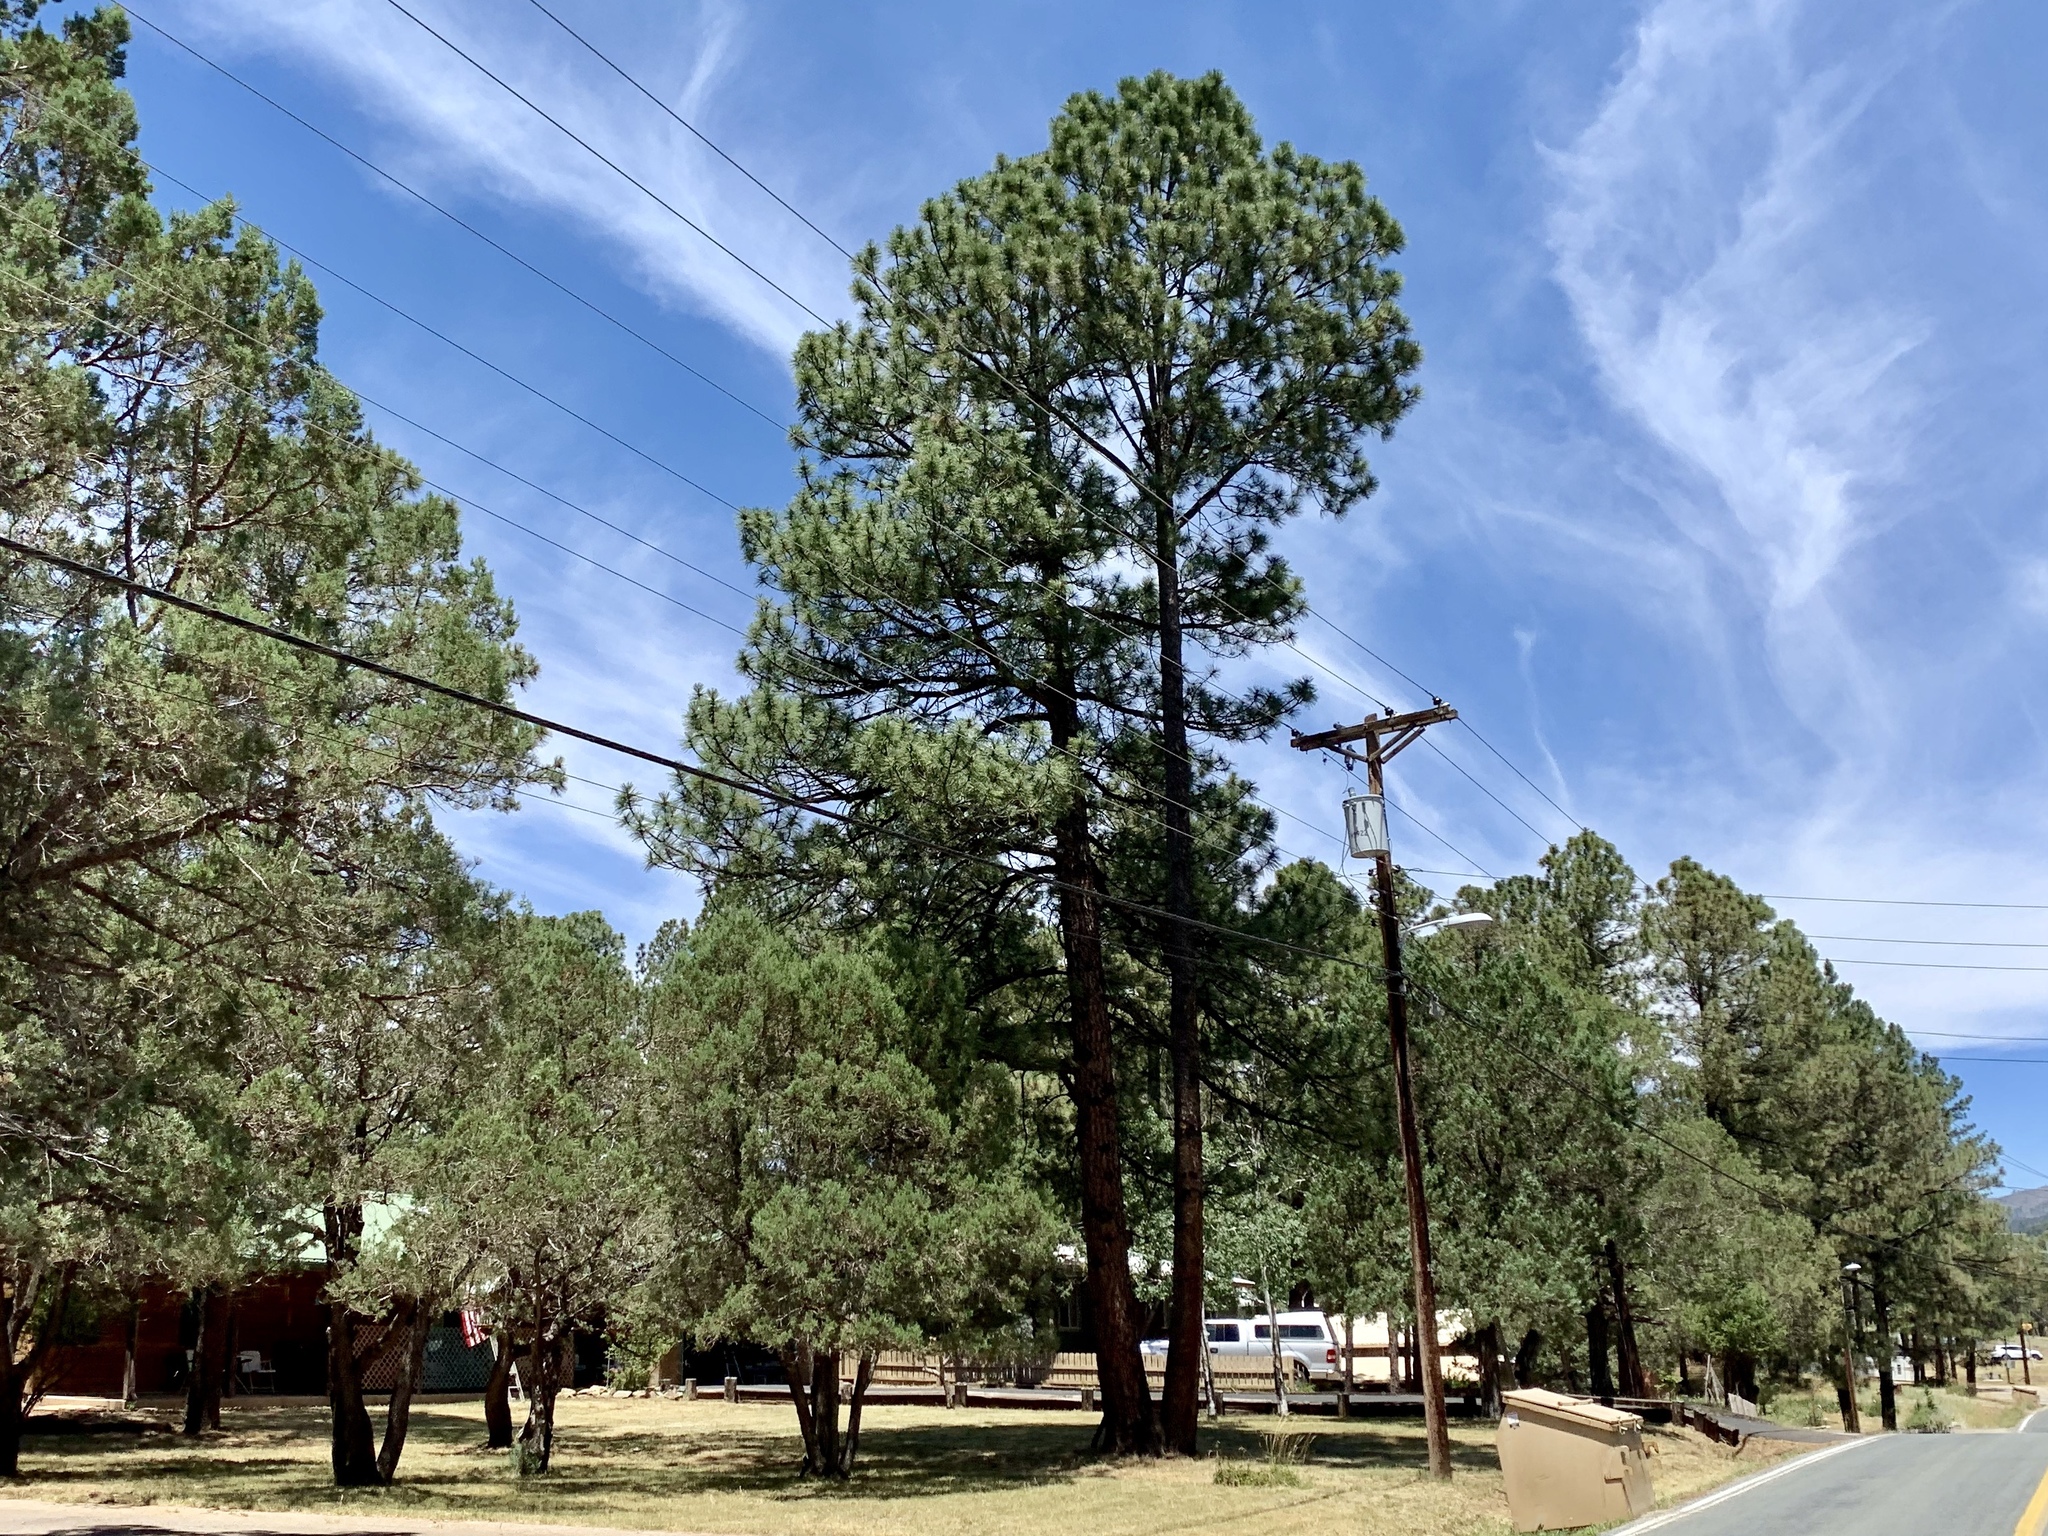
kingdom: Plantae
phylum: Tracheophyta
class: Pinopsida
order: Pinales
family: Pinaceae
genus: Pinus
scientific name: Pinus ponderosa
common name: Western yellow-pine
